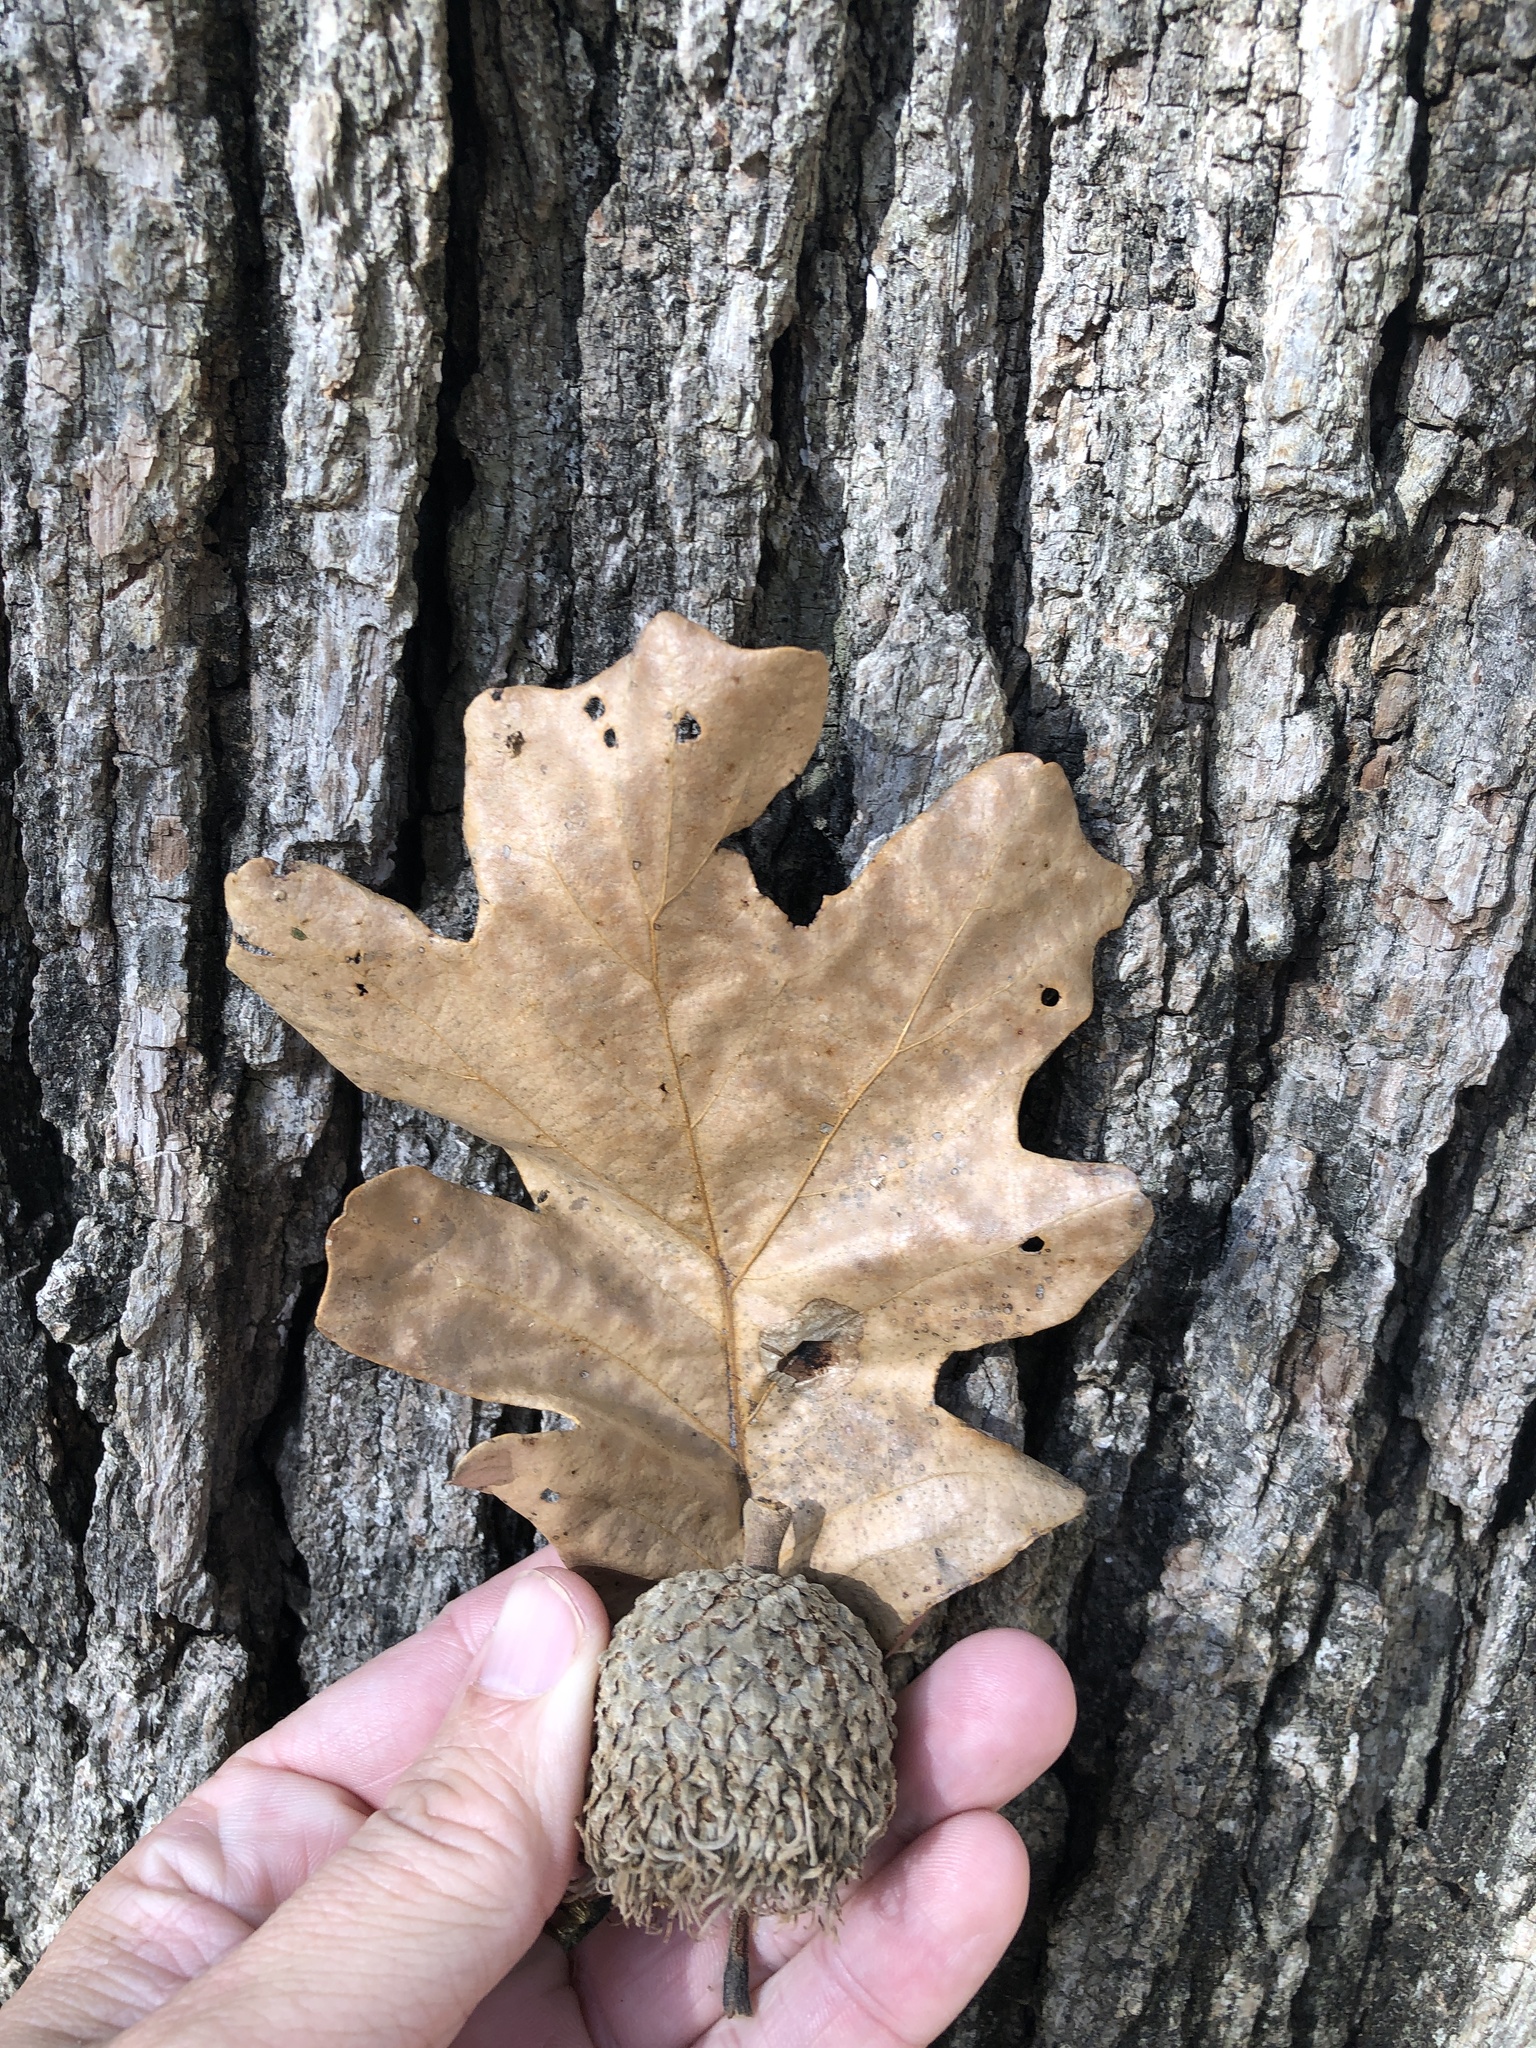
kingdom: Plantae
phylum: Tracheophyta
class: Magnoliopsida
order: Fagales
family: Fagaceae
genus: Quercus
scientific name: Quercus macrocarpa
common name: Bur oak
